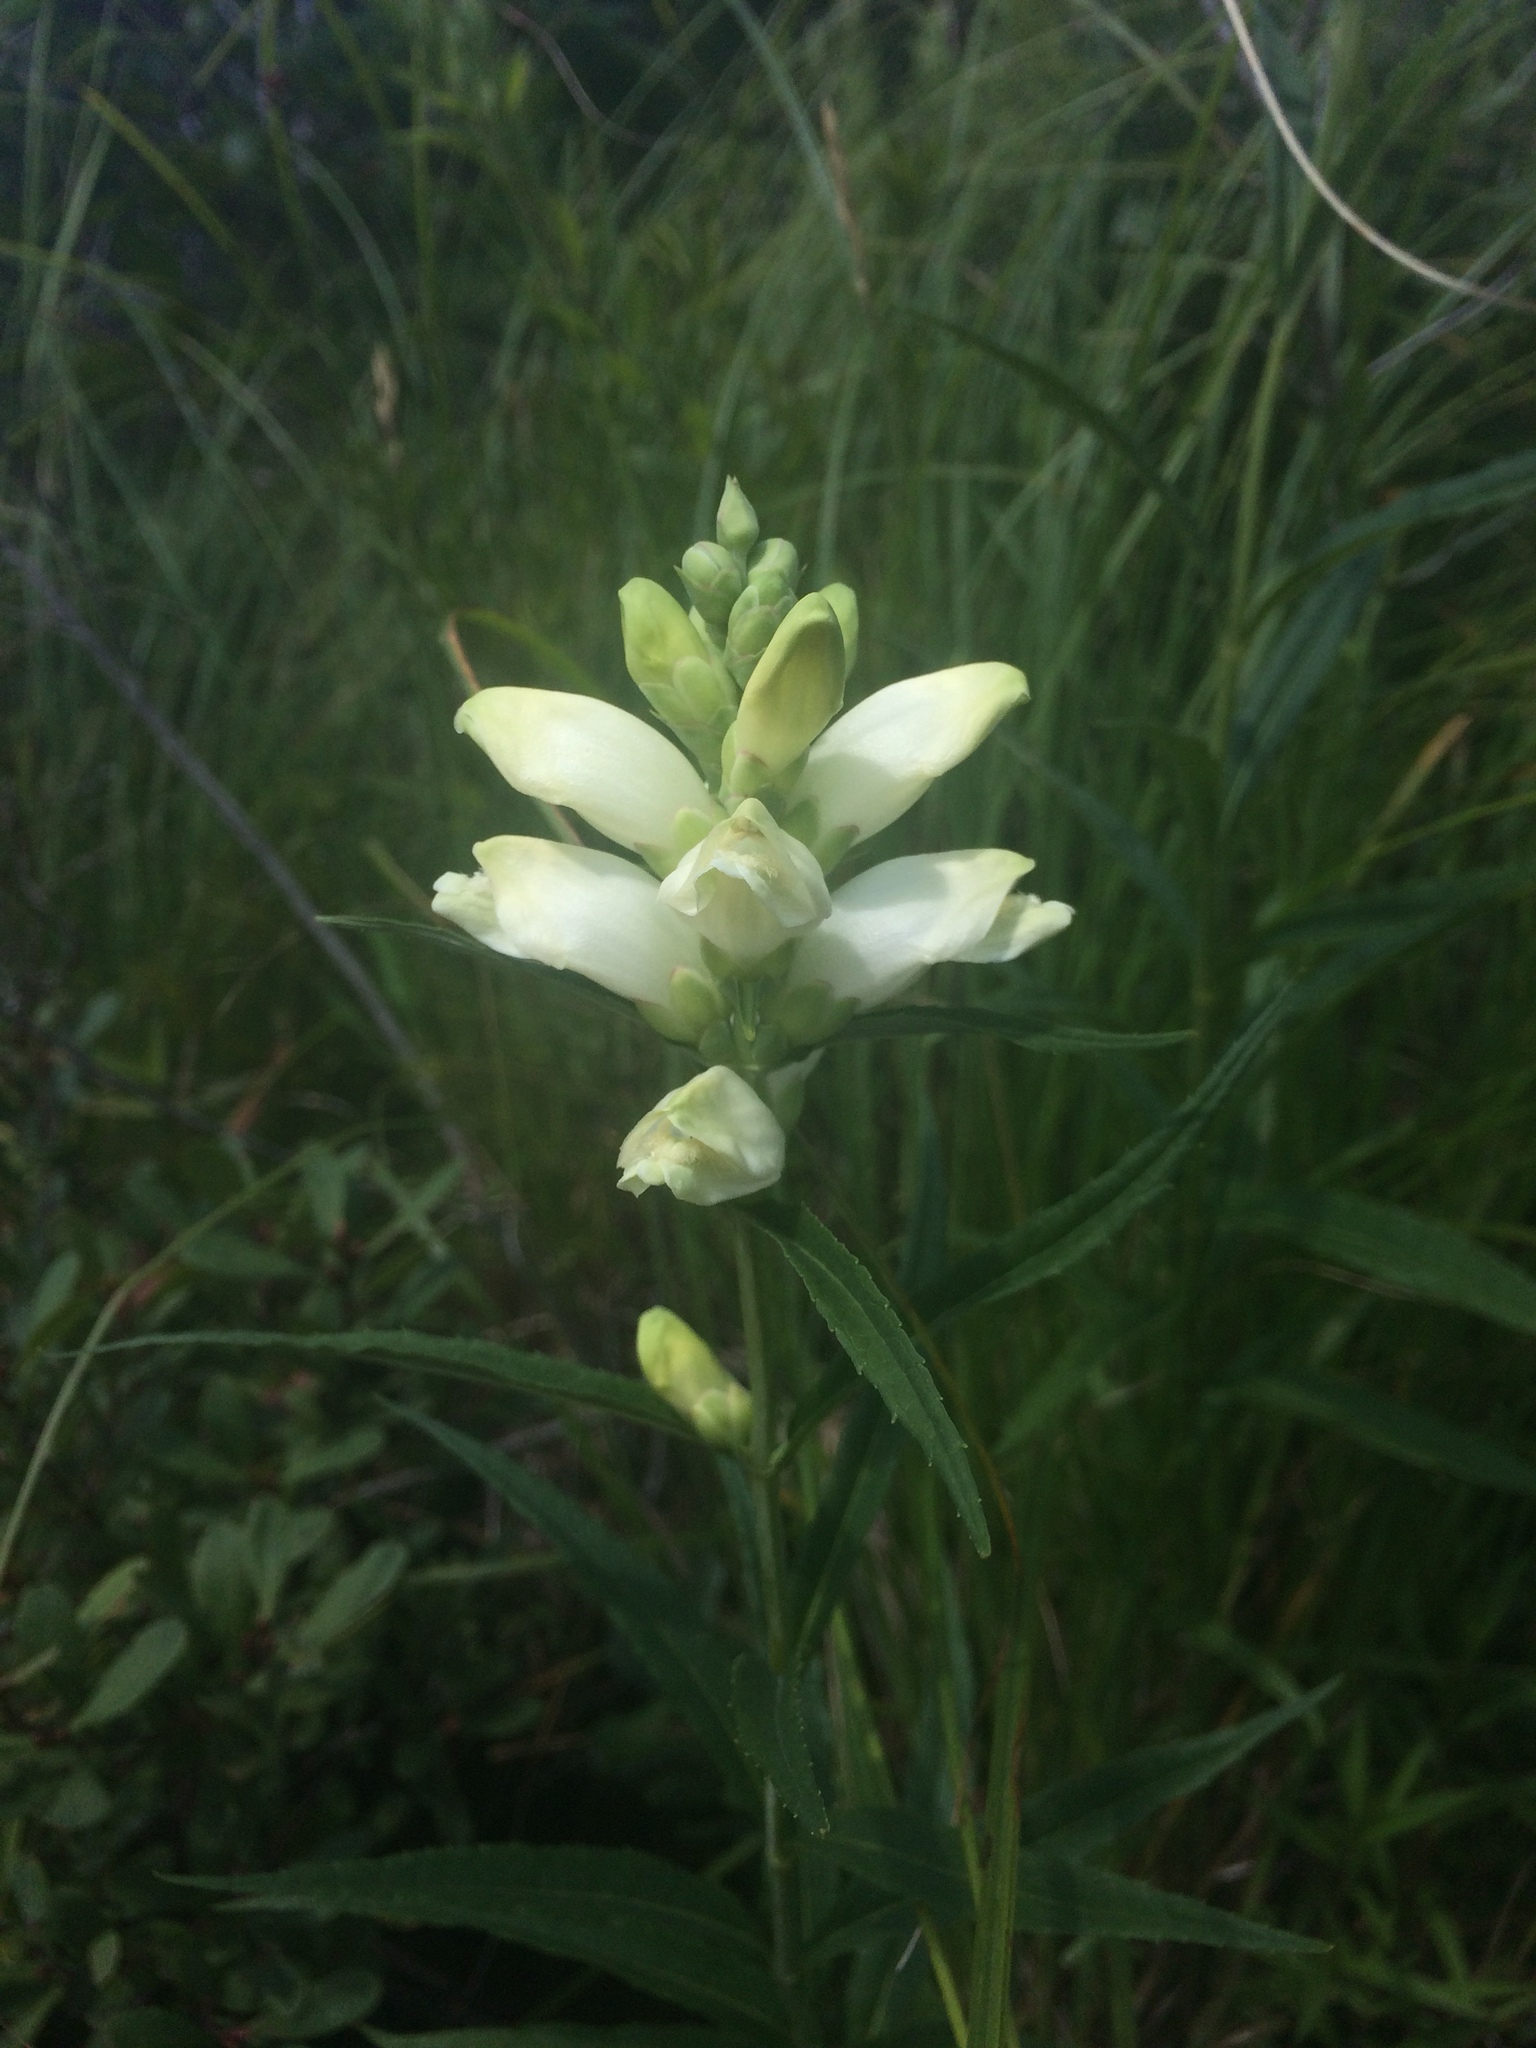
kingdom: Plantae
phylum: Tracheophyta
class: Magnoliopsida
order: Lamiales
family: Plantaginaceae
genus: Chelone
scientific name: Chelone glabra
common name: Snakehead
